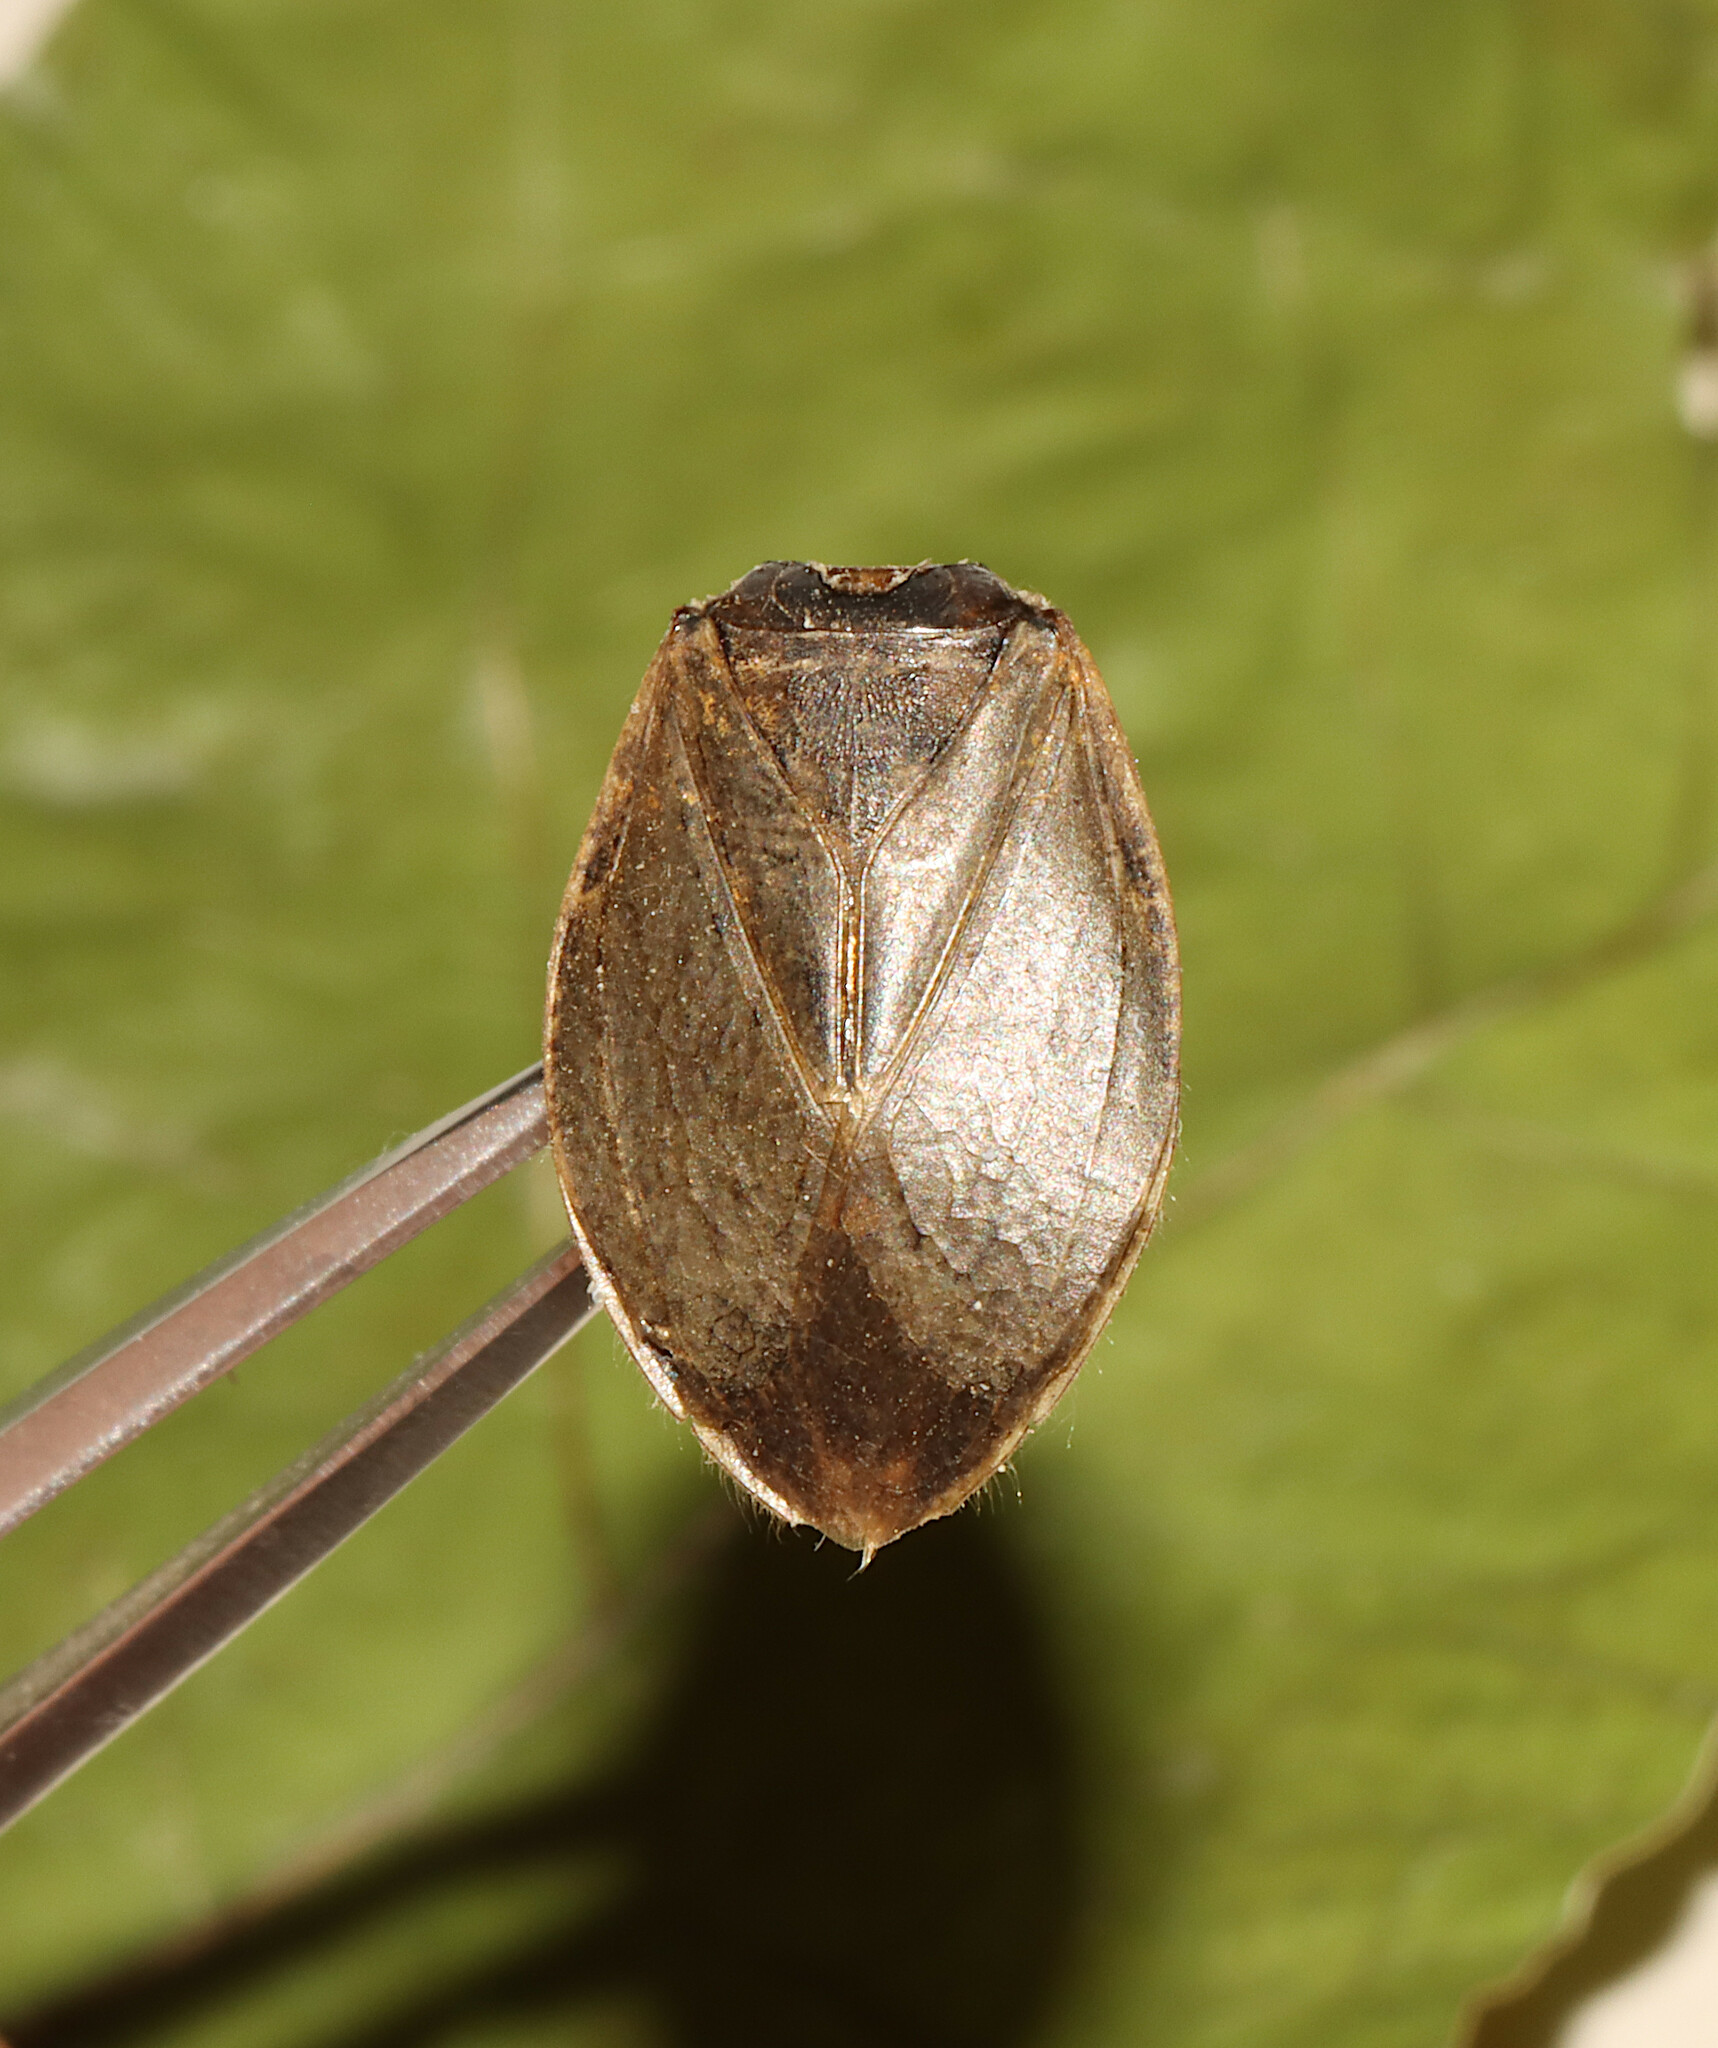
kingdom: Animalia
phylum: Arthropoda
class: Insecta
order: Hemiptera
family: Belostomatidae
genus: Belostoma
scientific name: Belostoma
